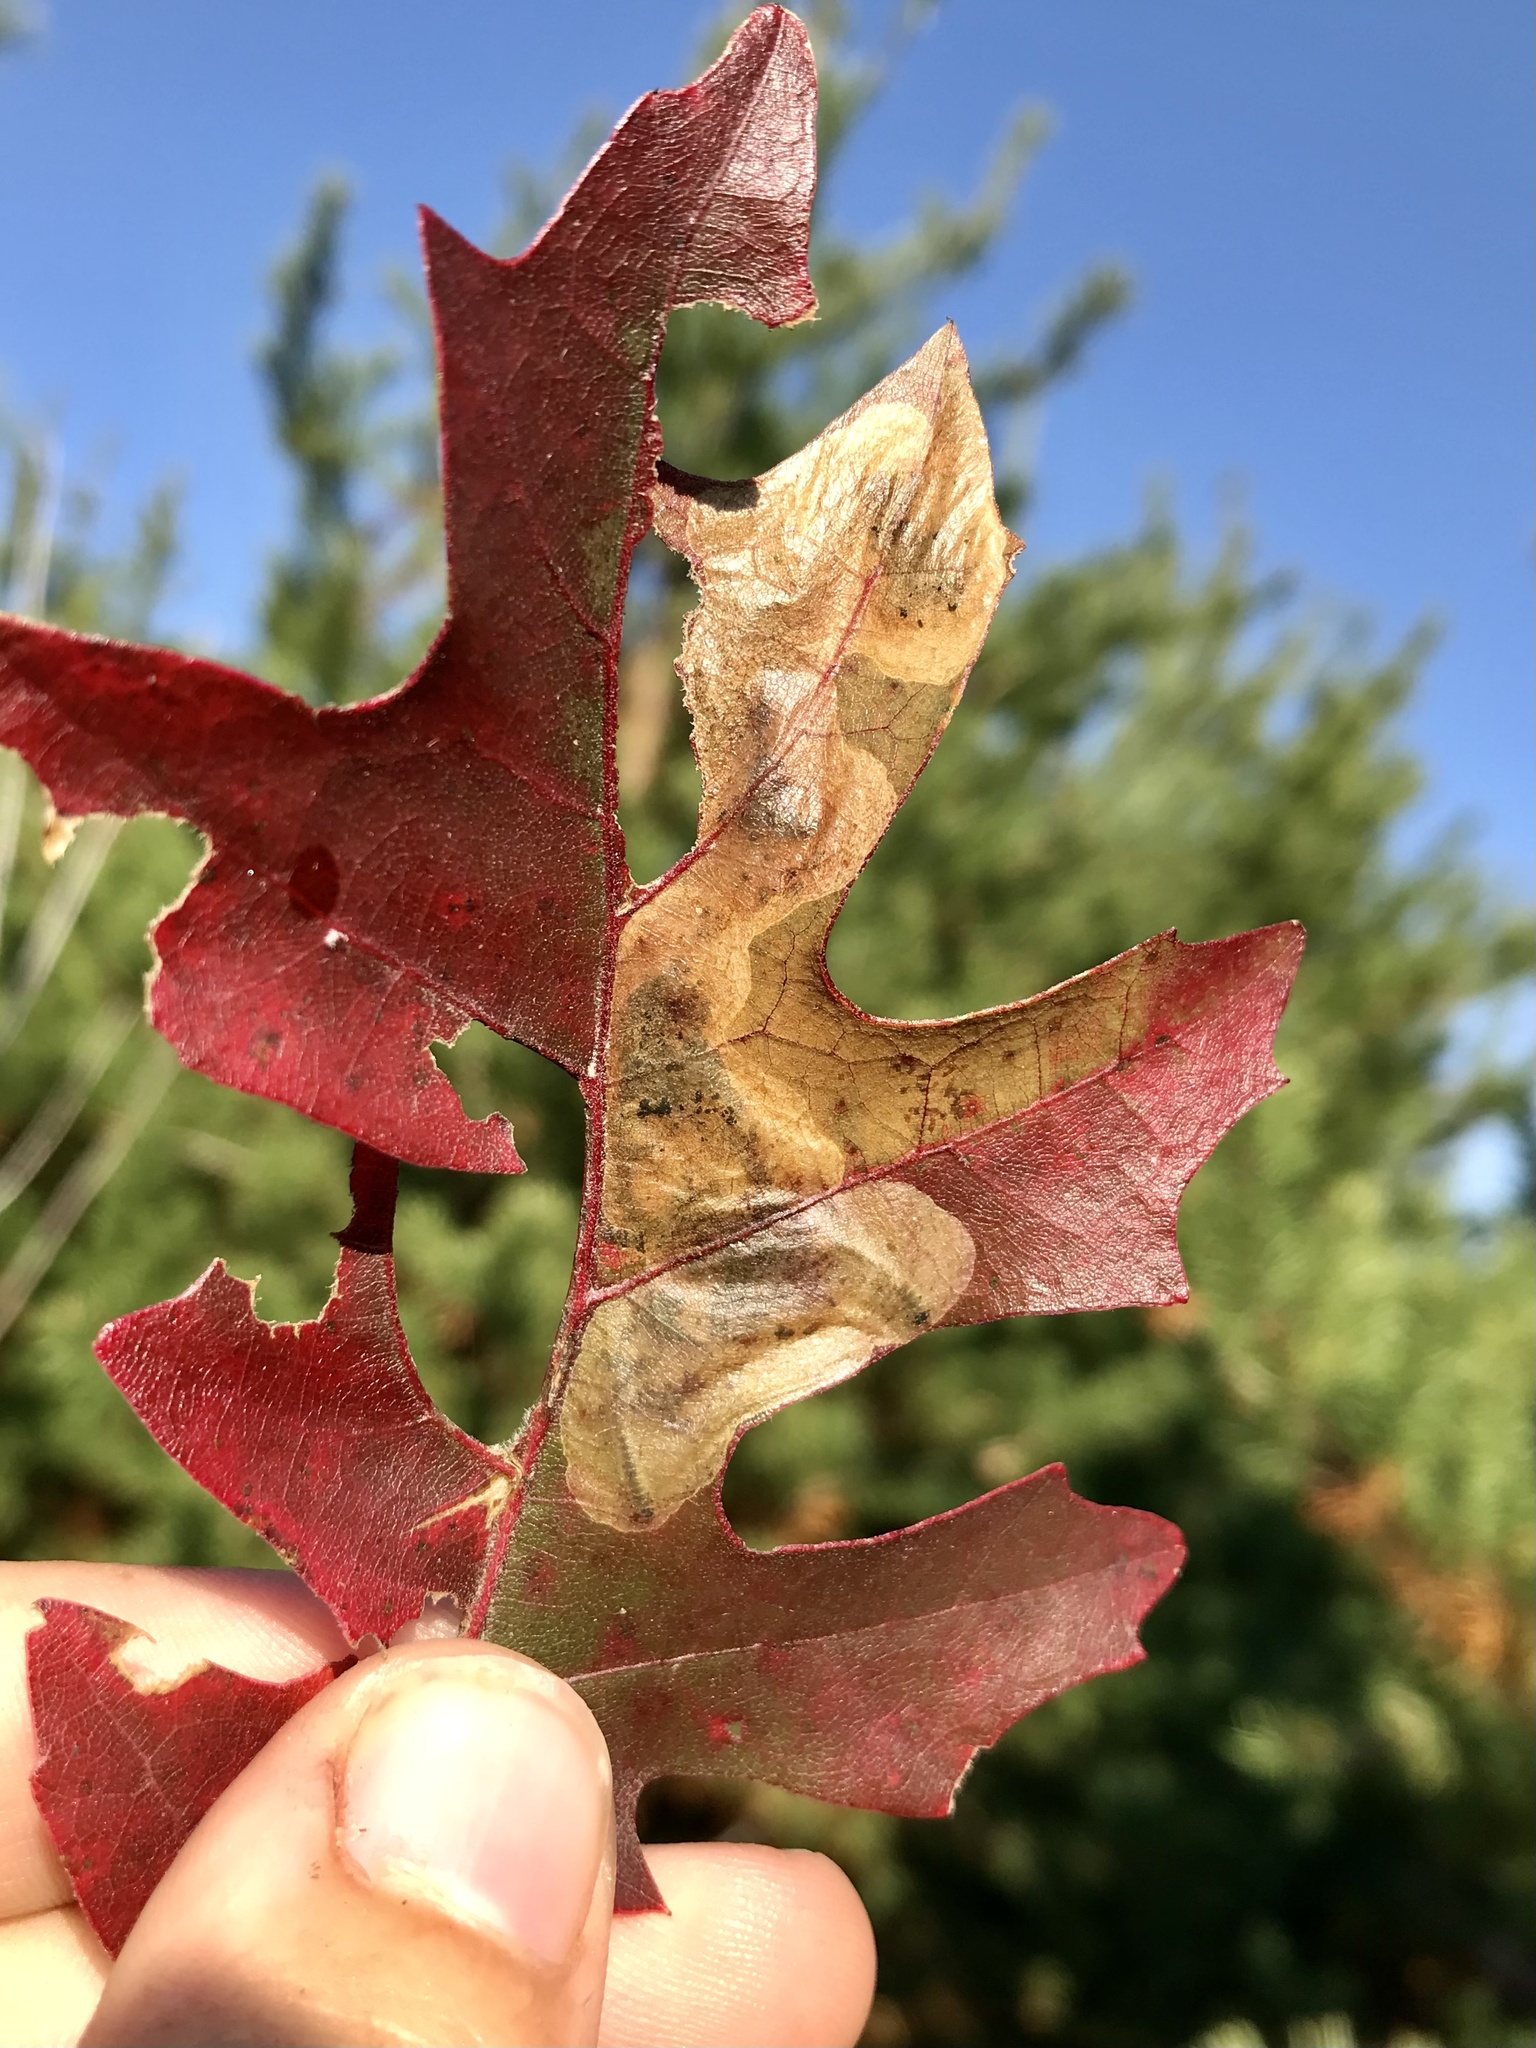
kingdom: Animalia
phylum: Arthropoda
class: Insecta
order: Hymenoptera
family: Tenthredinidae
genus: Profenusa
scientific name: Profenusa
